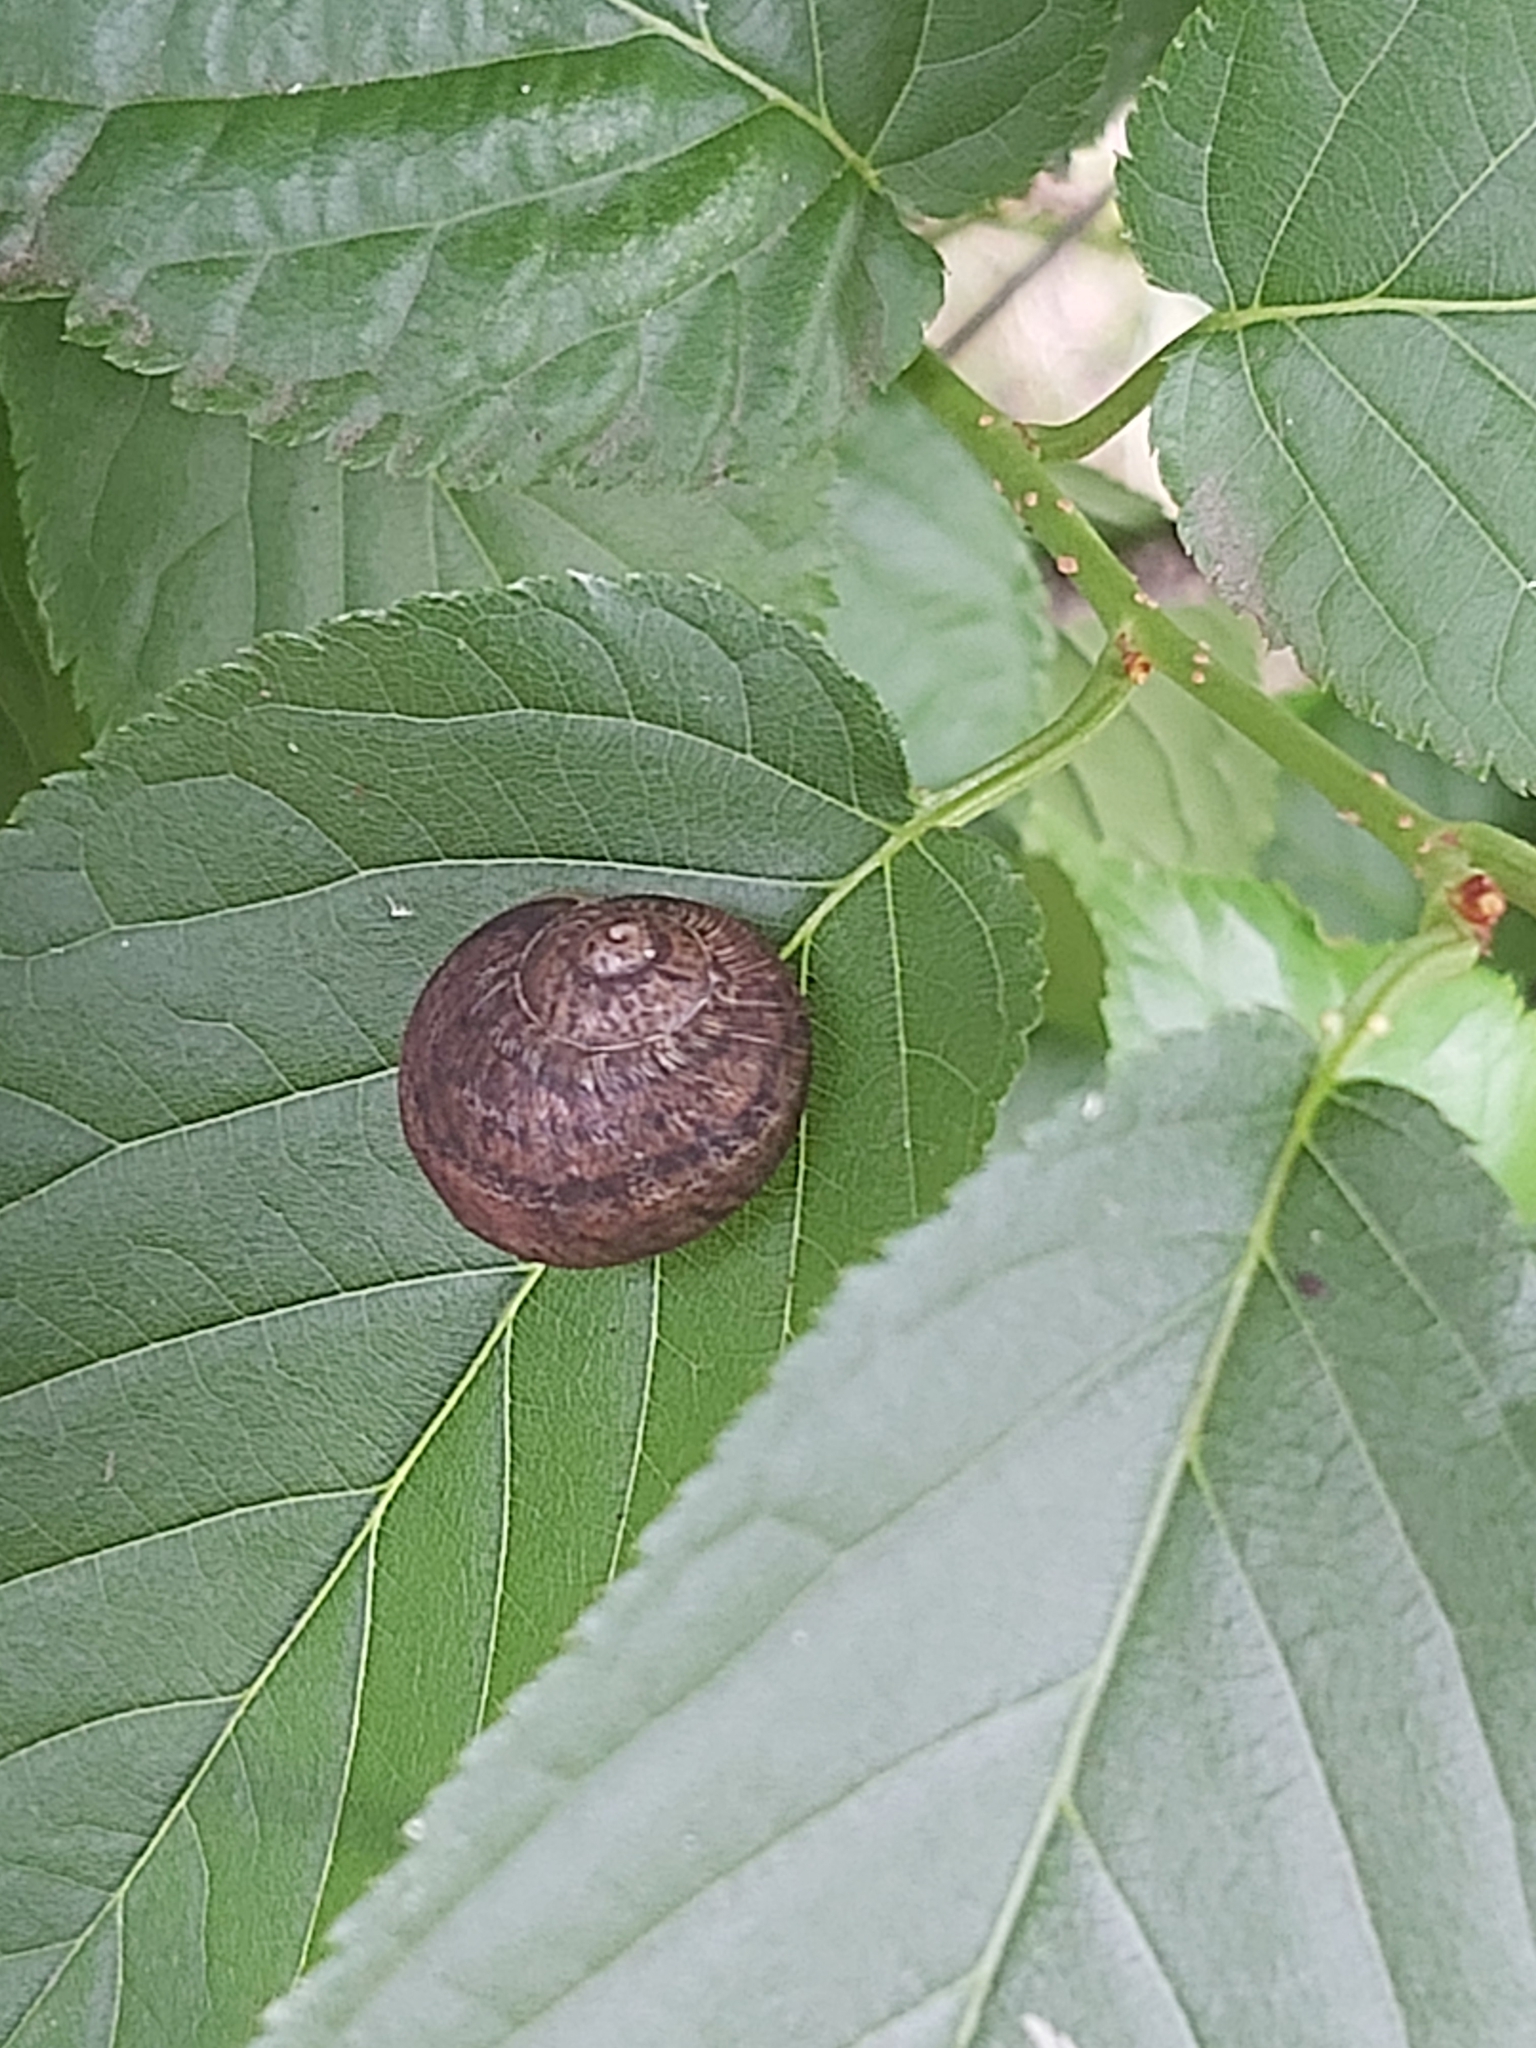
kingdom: Animalia
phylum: Mollusca
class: Gastropoda
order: Stylommatophora
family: Helicidae
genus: Cornu
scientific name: Cornu aspersum
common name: Brown garden snail
